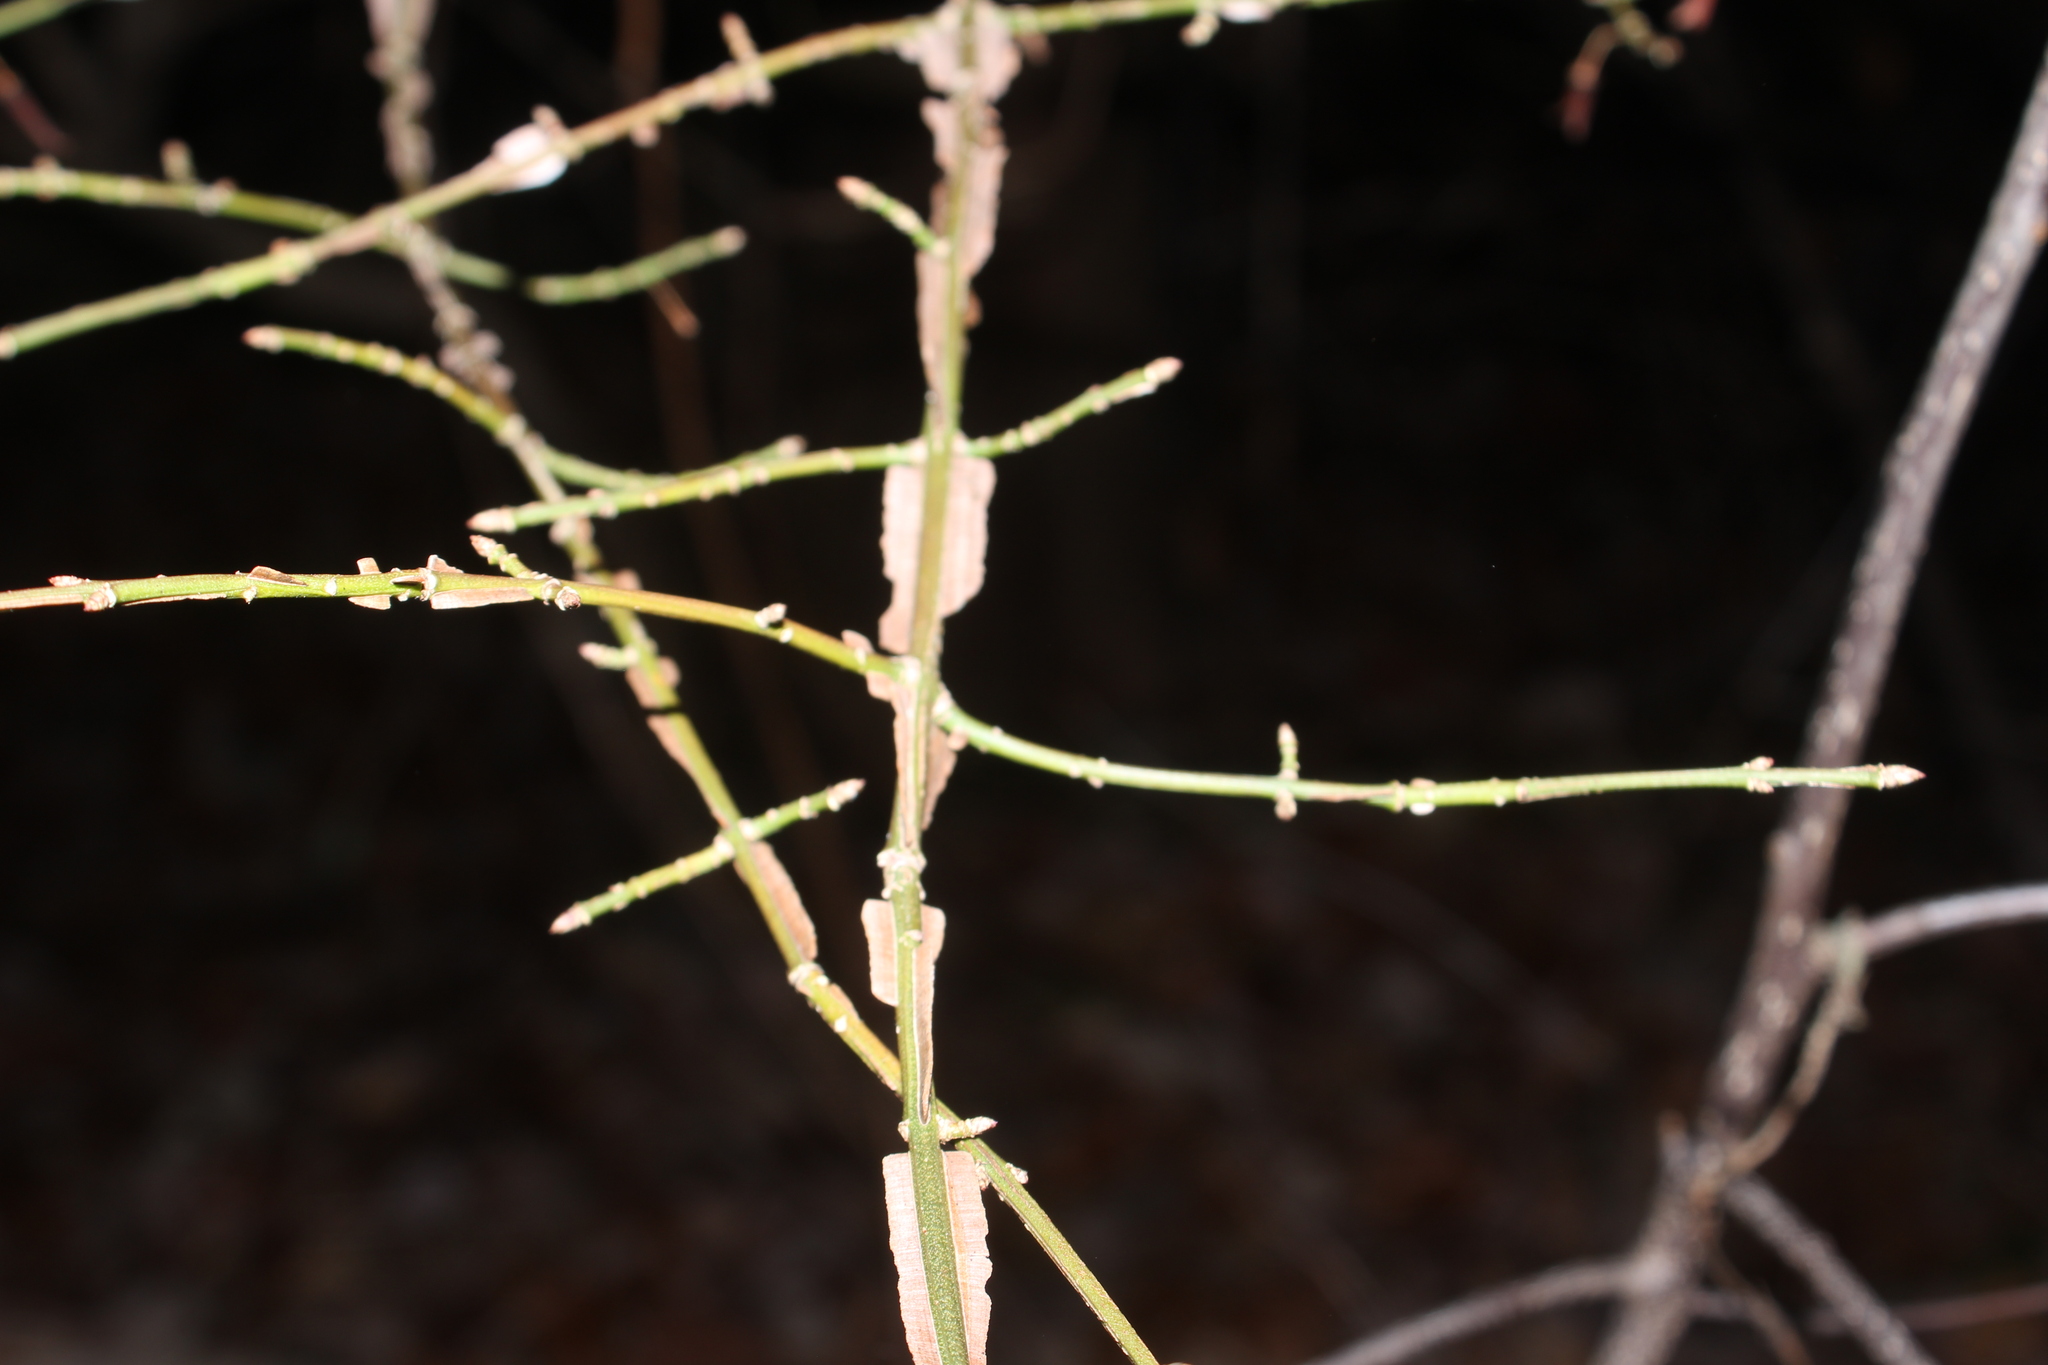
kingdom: Plantae
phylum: Tracheophyta
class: Magnoliopsida
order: Celastrales
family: Celastraceae
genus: Euonymus
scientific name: Euonymus alatus
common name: Winged euonymus
